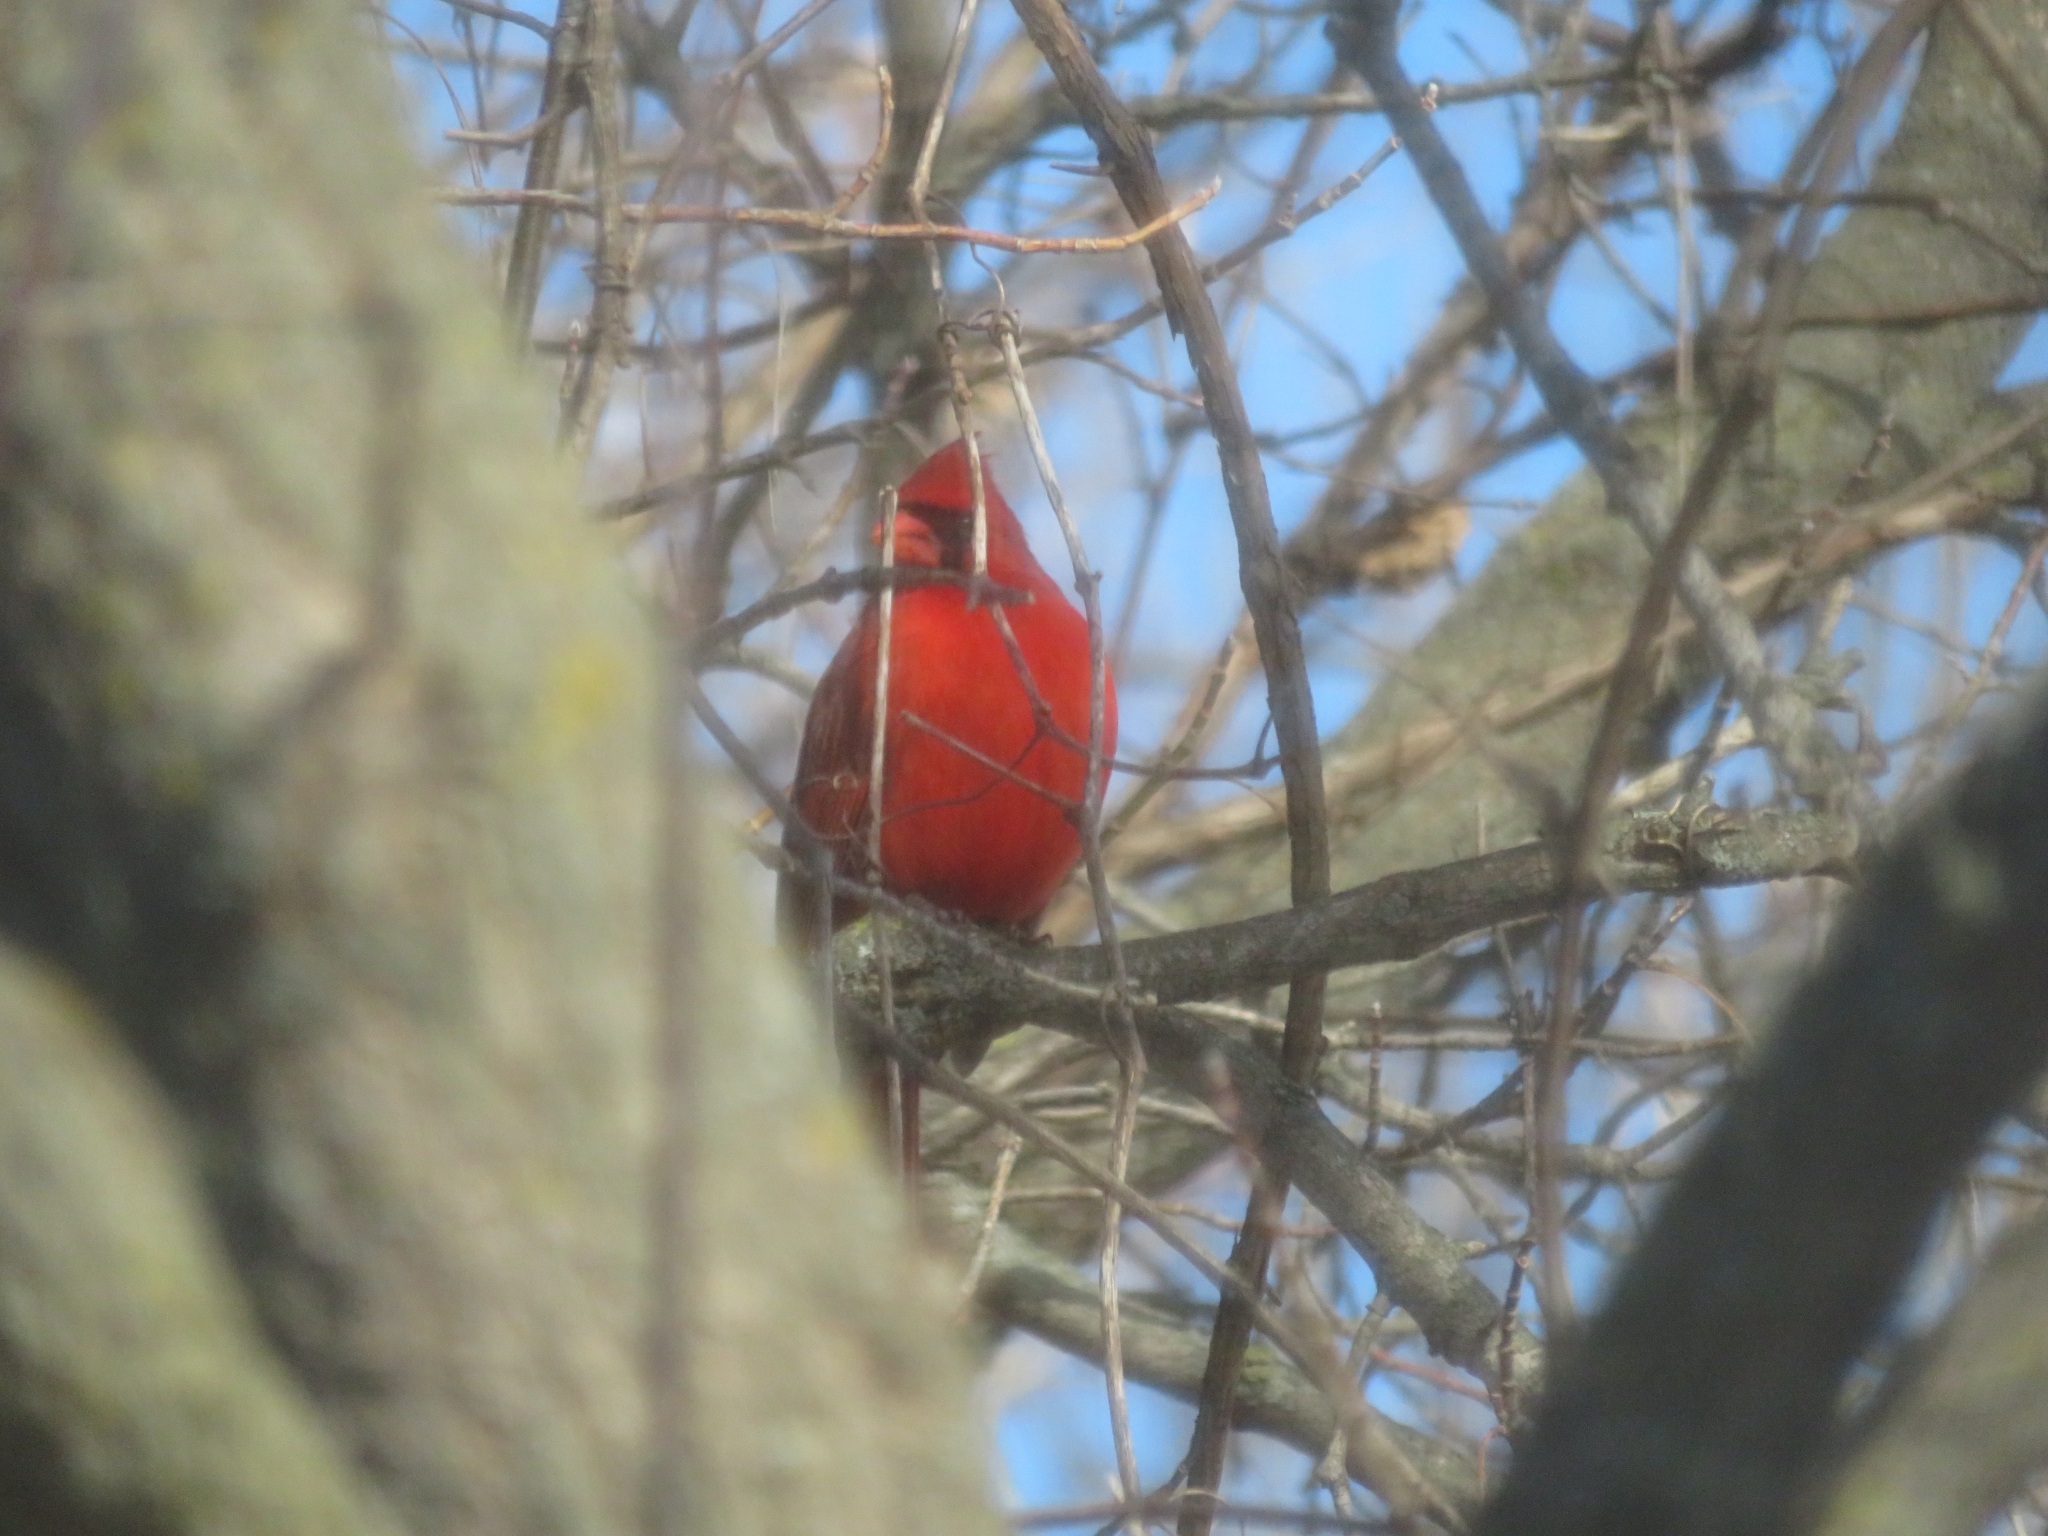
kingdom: Animalia
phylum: Chordata
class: Aves
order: Passeriformes
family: Cardinalidae
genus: Cardinalis
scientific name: Cardinalis cardinalis
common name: Northern cardinal
